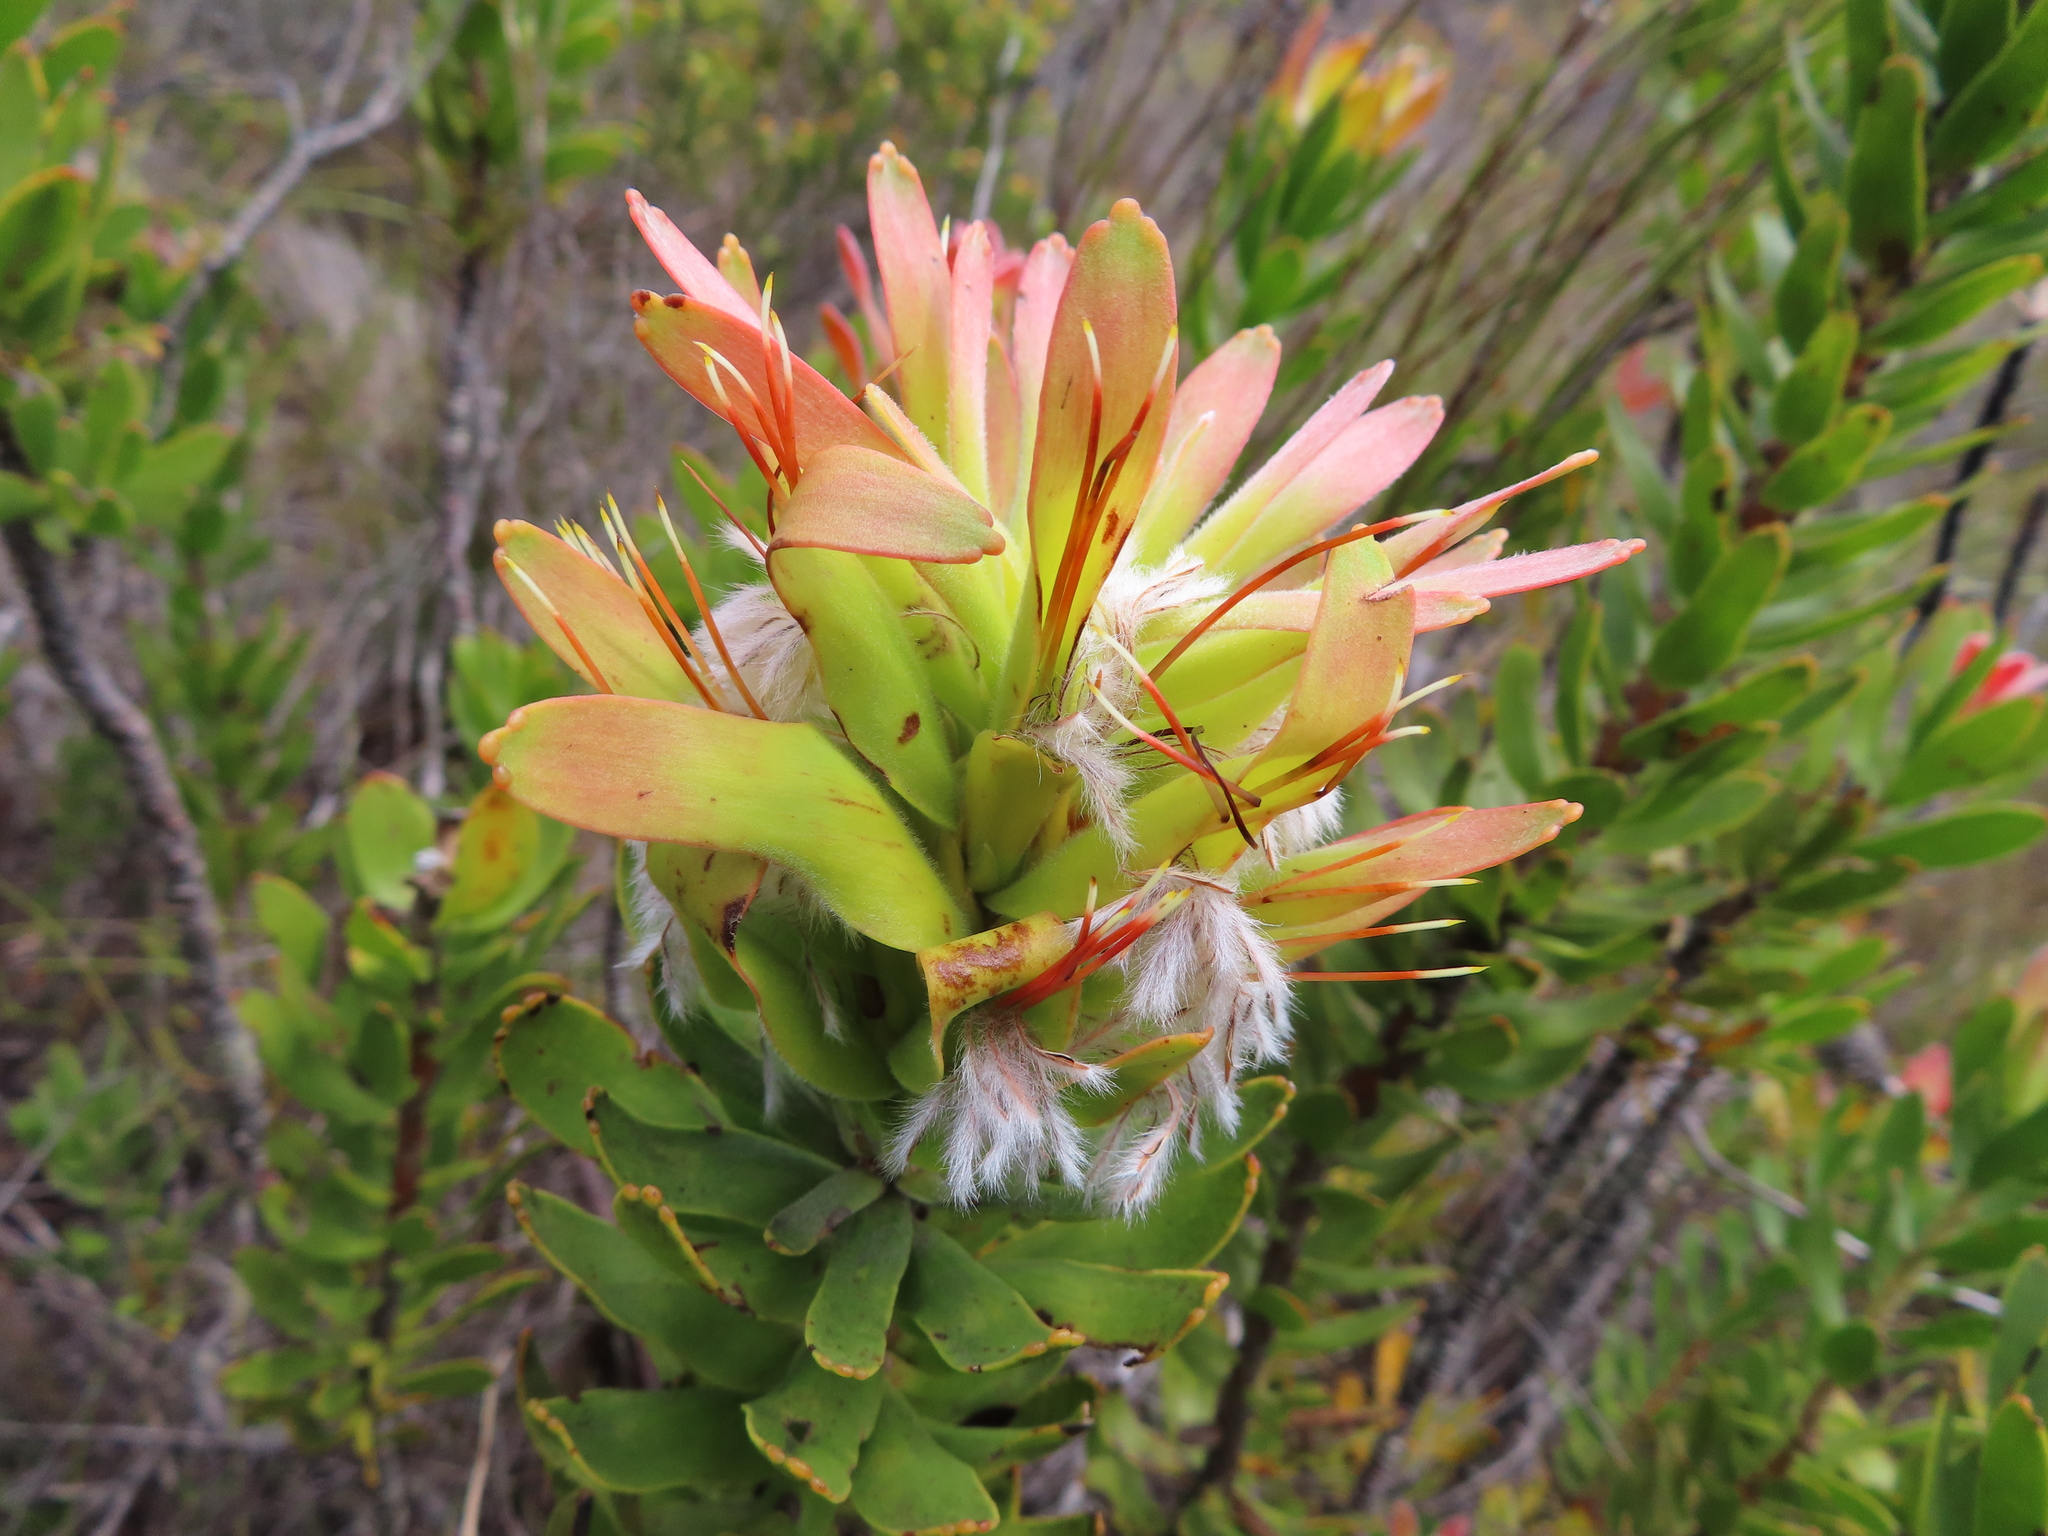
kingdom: Plantae
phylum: Tracheophyta
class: Magnoliopsida
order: Proteales
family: Proteaceae
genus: Mimetes
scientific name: Mimetes cucullatus
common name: Common pagoda
